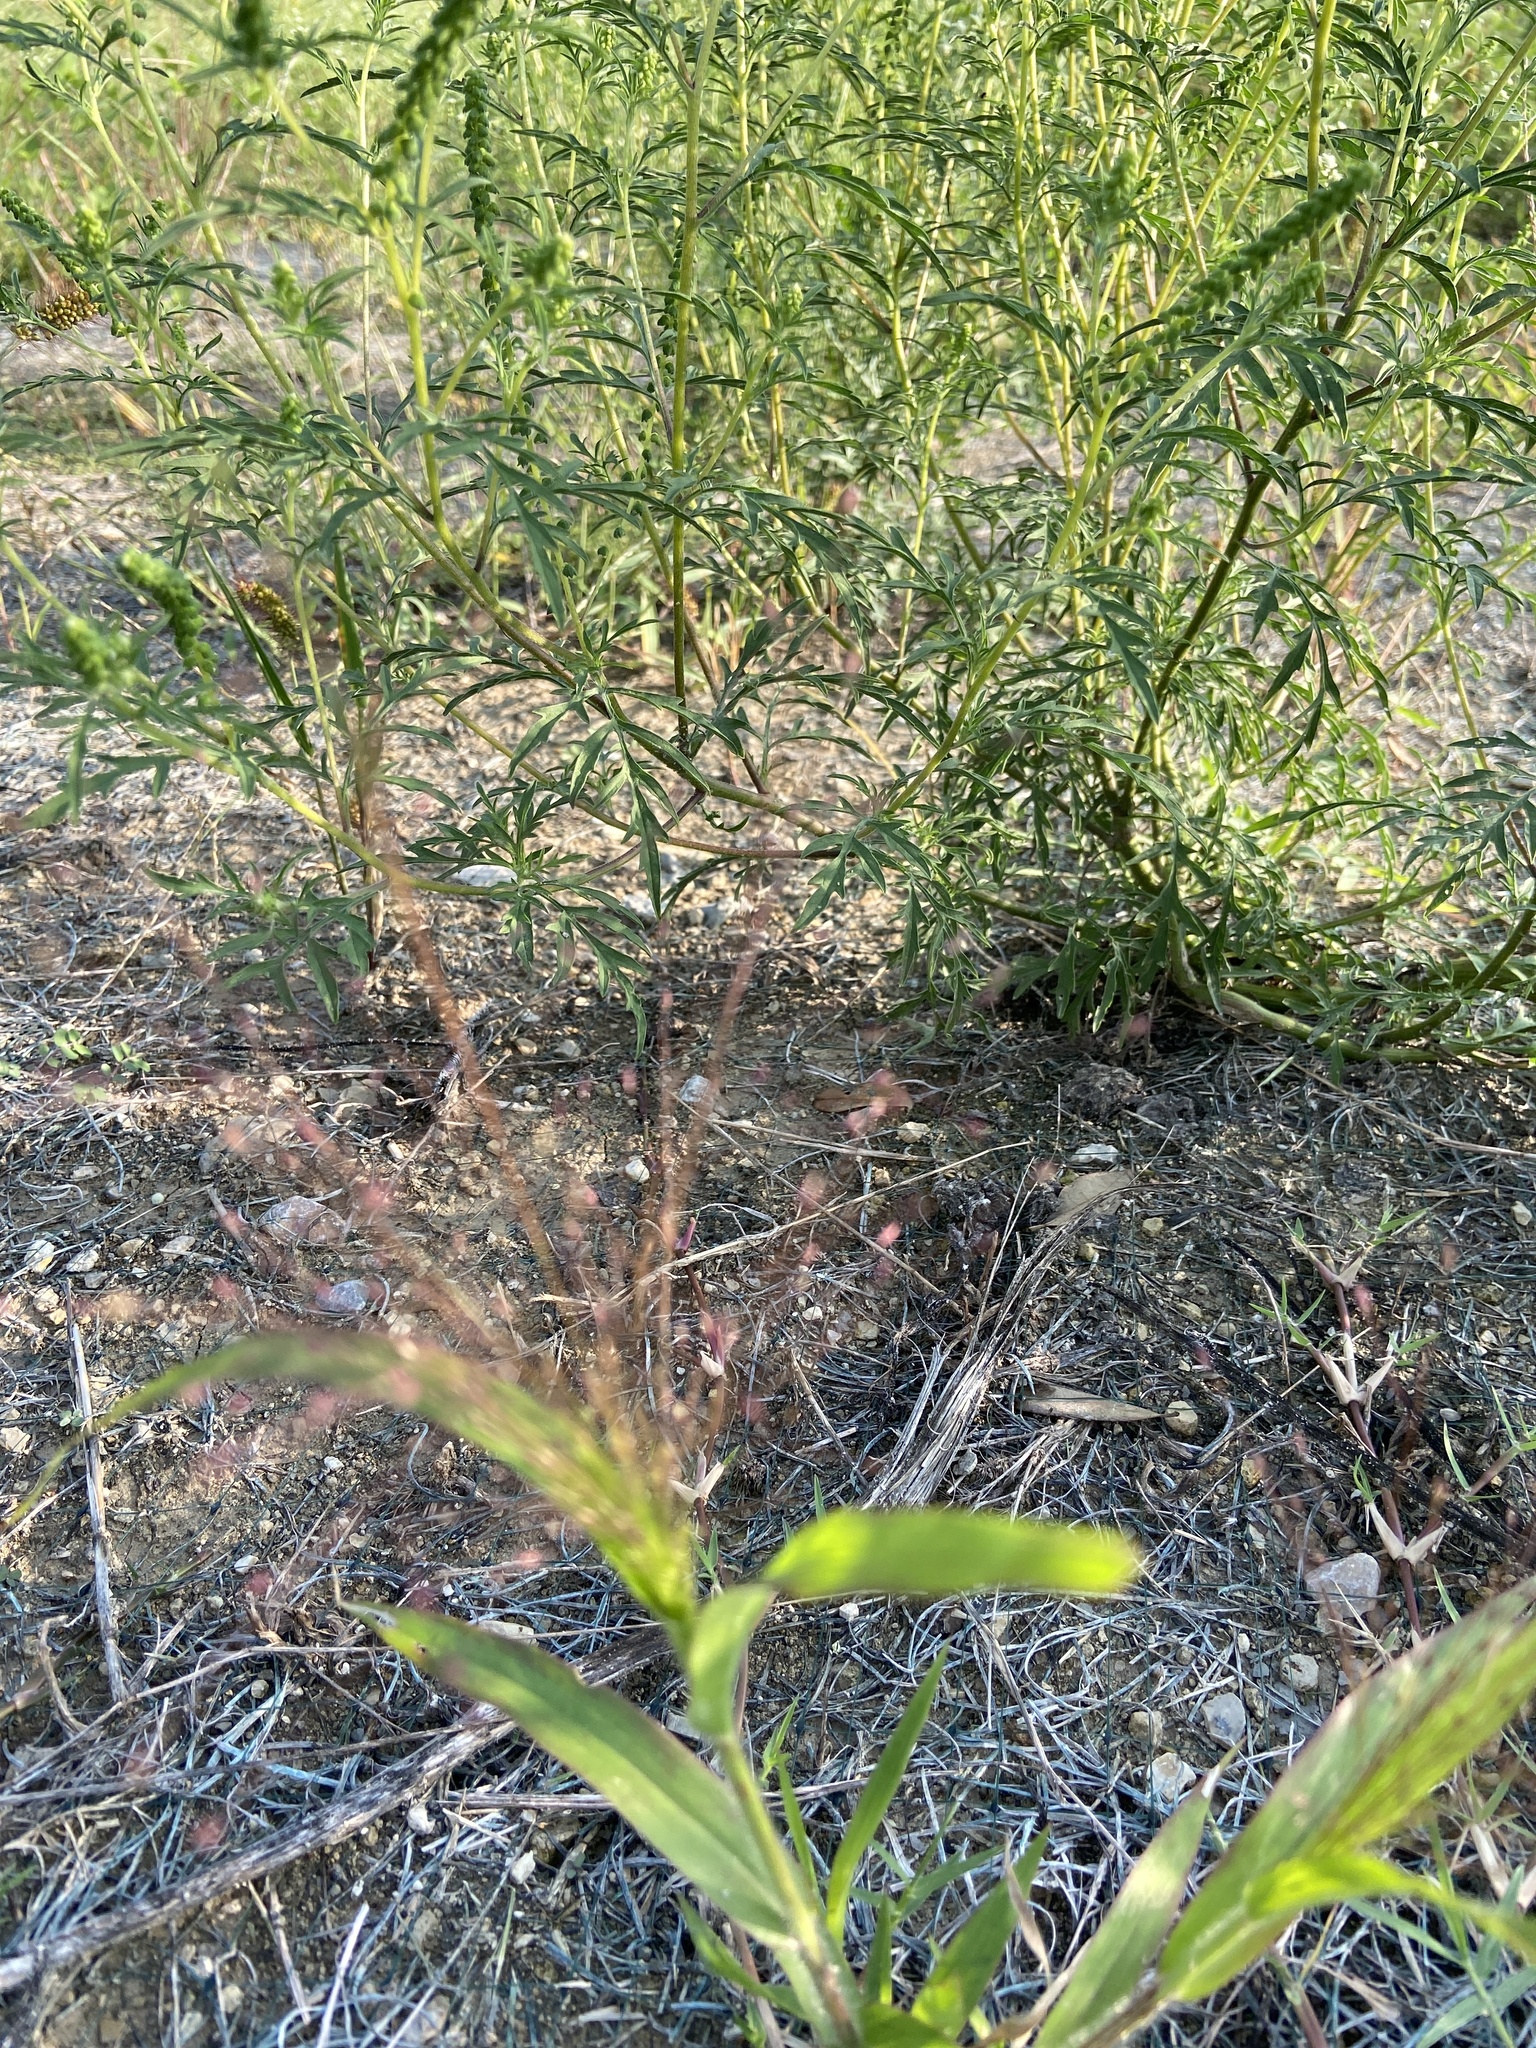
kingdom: Plantae
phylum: Tracheophyta
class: Liliopsida
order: Poales
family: Poaceae
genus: Panicum
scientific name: Panicum capillare
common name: Witch-grass
